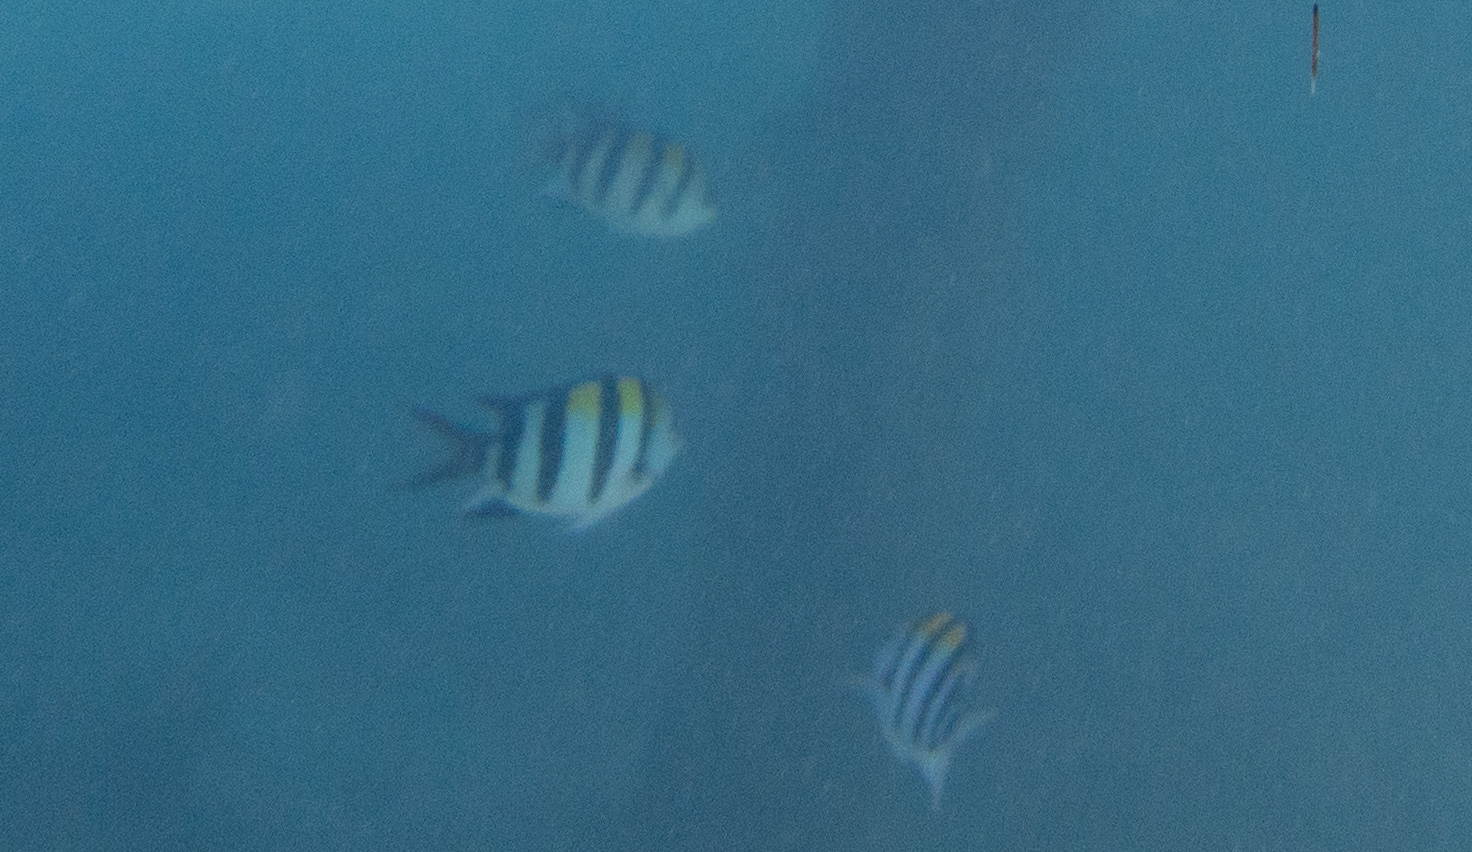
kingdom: Animalia
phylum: Chordata
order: Perciformes
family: Pomacentridae
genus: Abudefduf
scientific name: Abudefduf vaigiensis
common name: Indo-pacific sergeant
